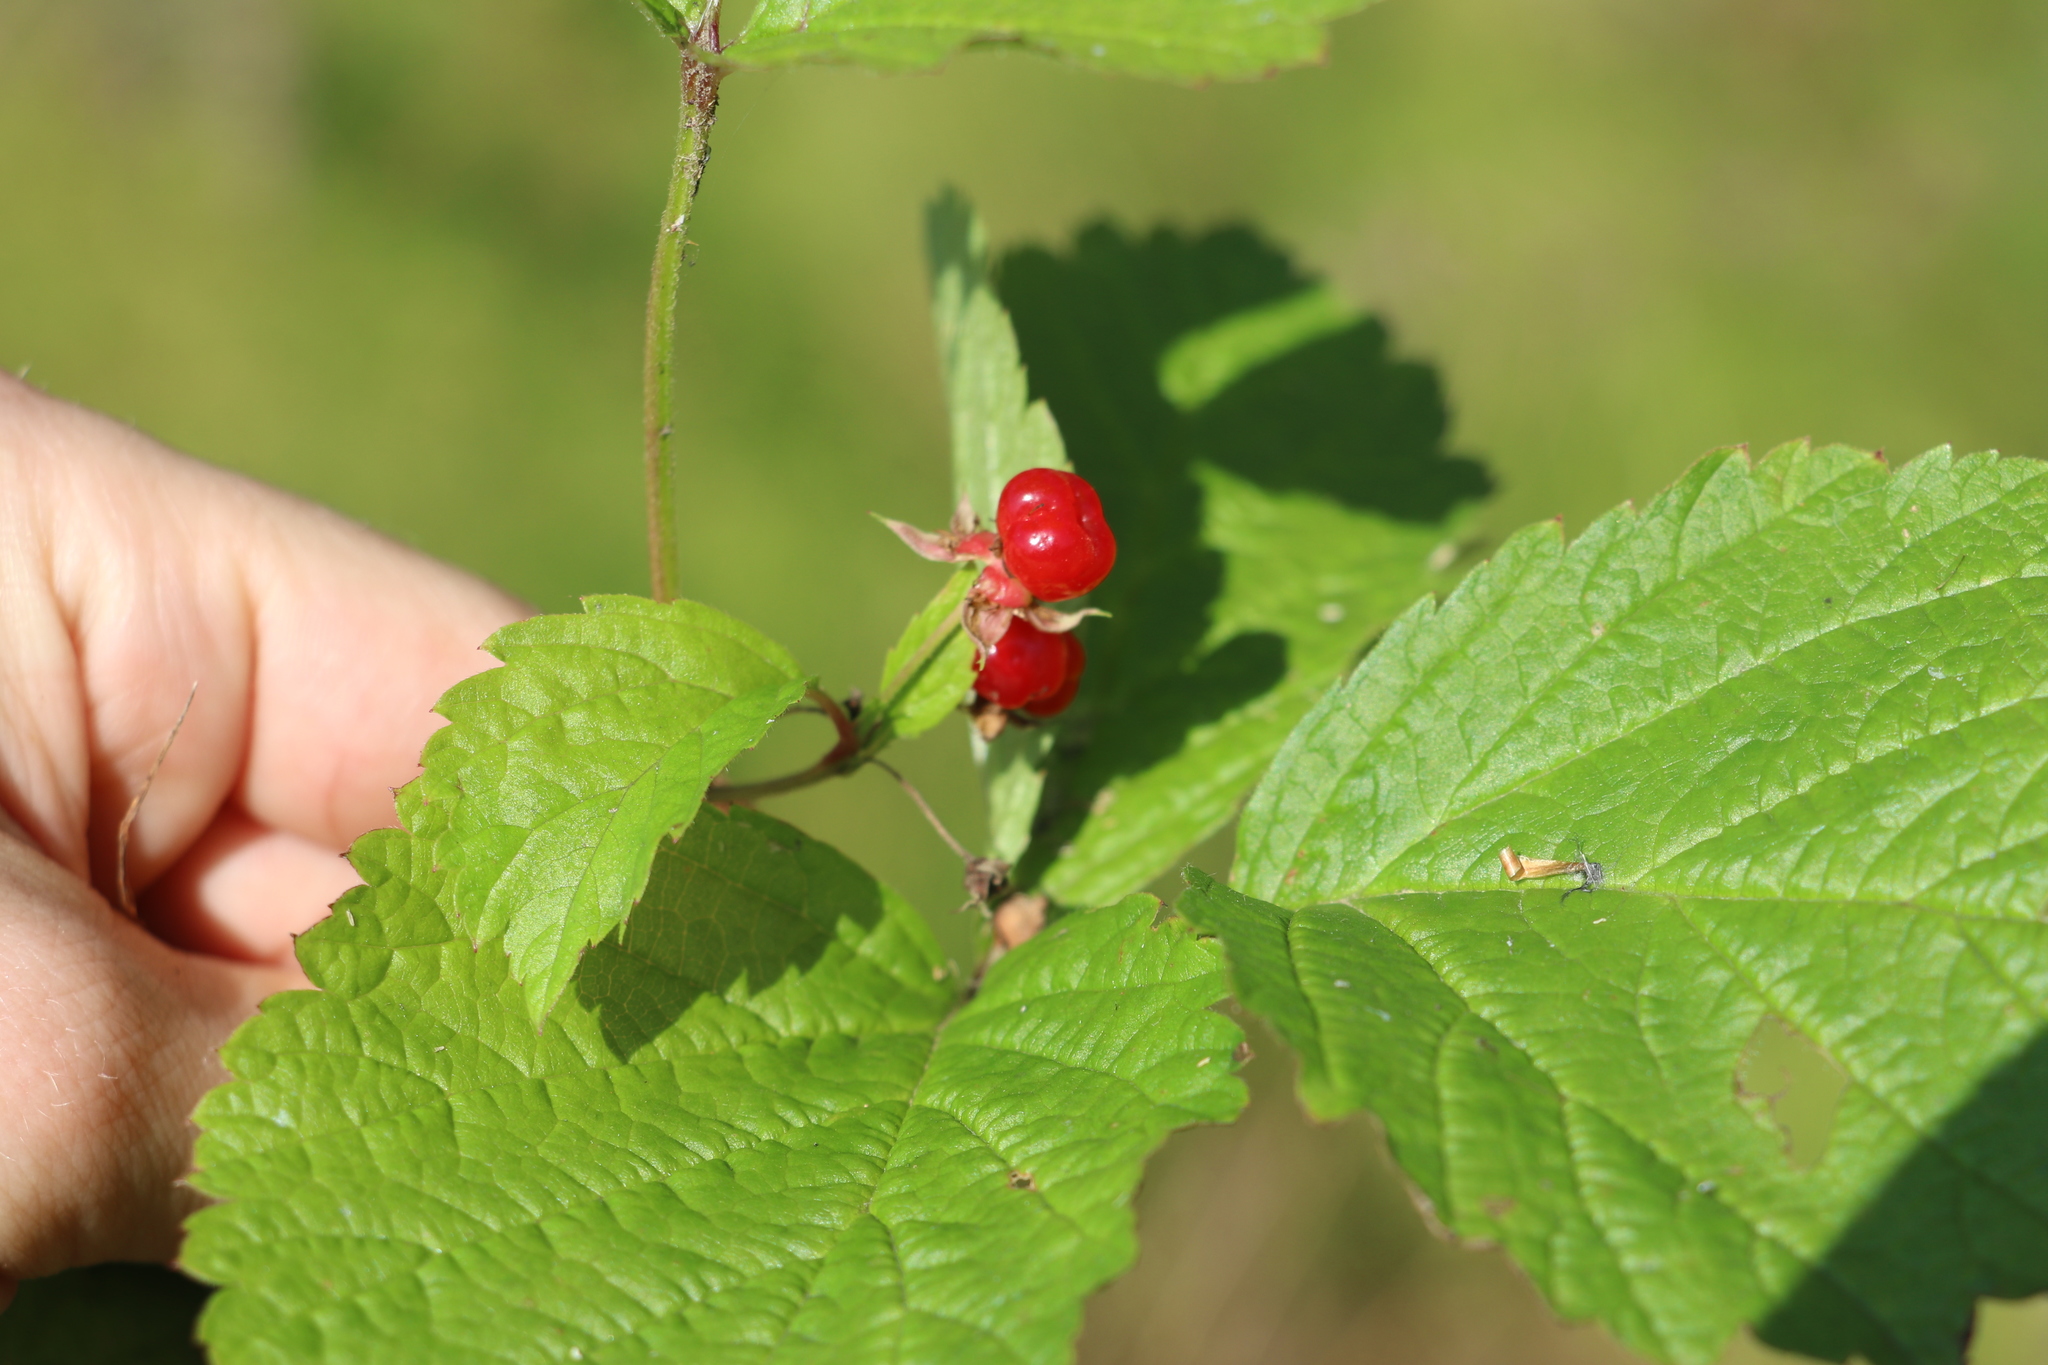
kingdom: Plantae
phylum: Tracheophyta
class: Magnoliopsida
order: Rosales
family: Rosaceae
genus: Rubus
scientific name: Rubus saxatilis
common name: Stone bramble
